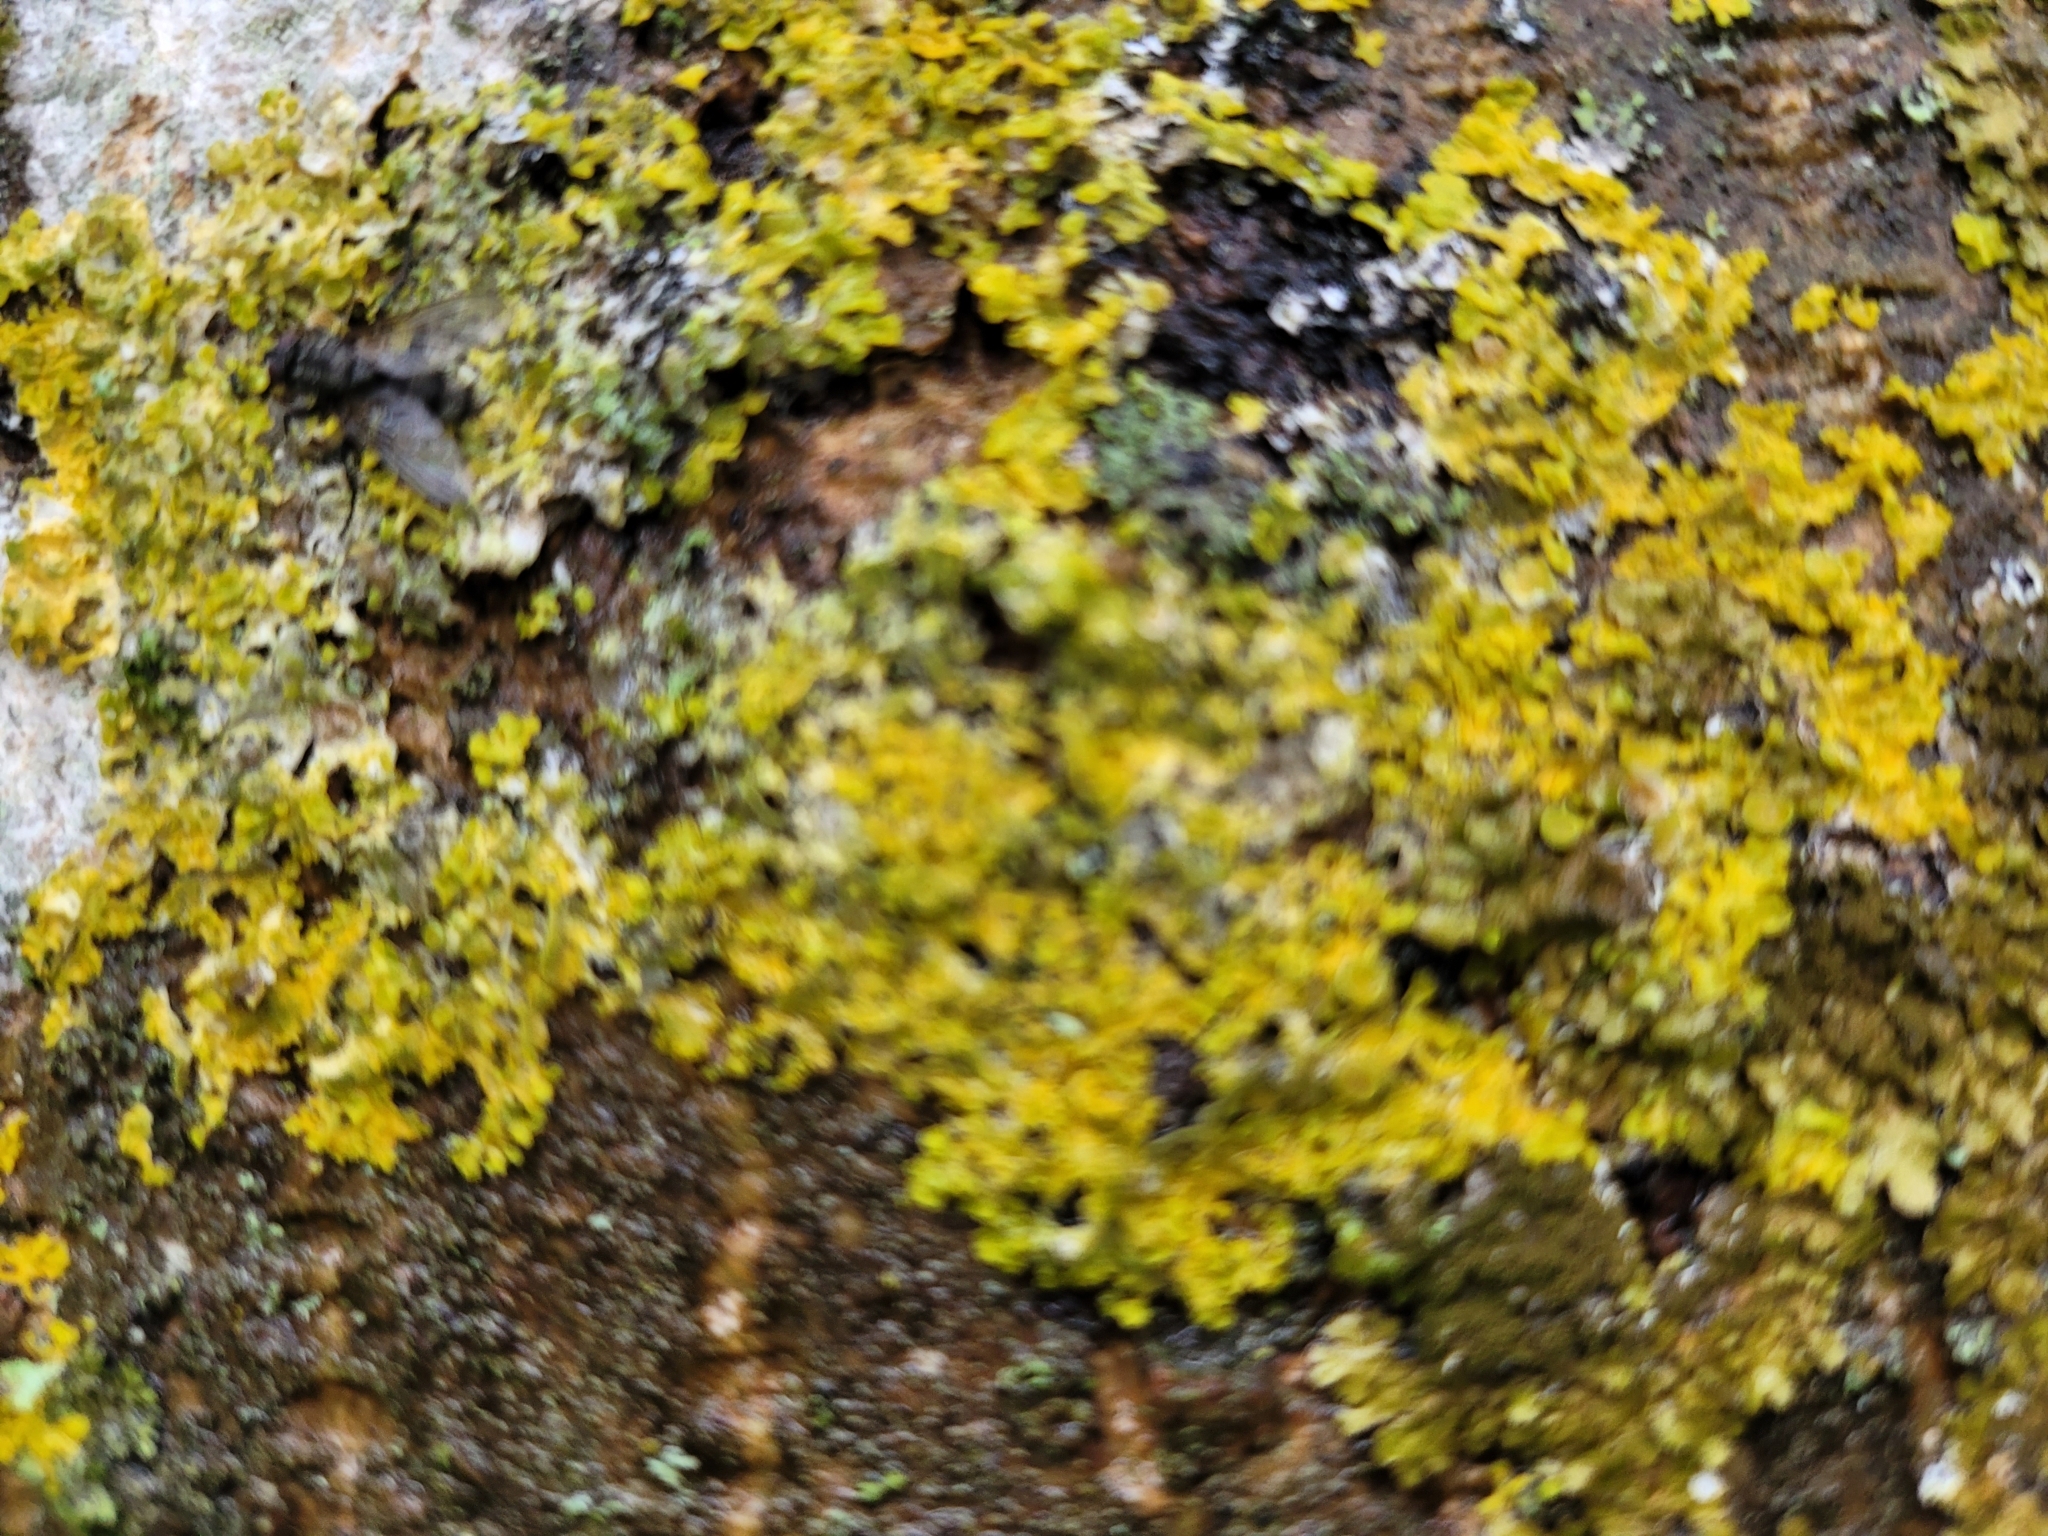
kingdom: Fungi
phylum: Ascomycota
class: Lecanoromycetes
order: Teloschistales
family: Teloschistaceae
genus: Xanthoria
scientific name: Xanthoria parietina
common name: Common orange lichen
